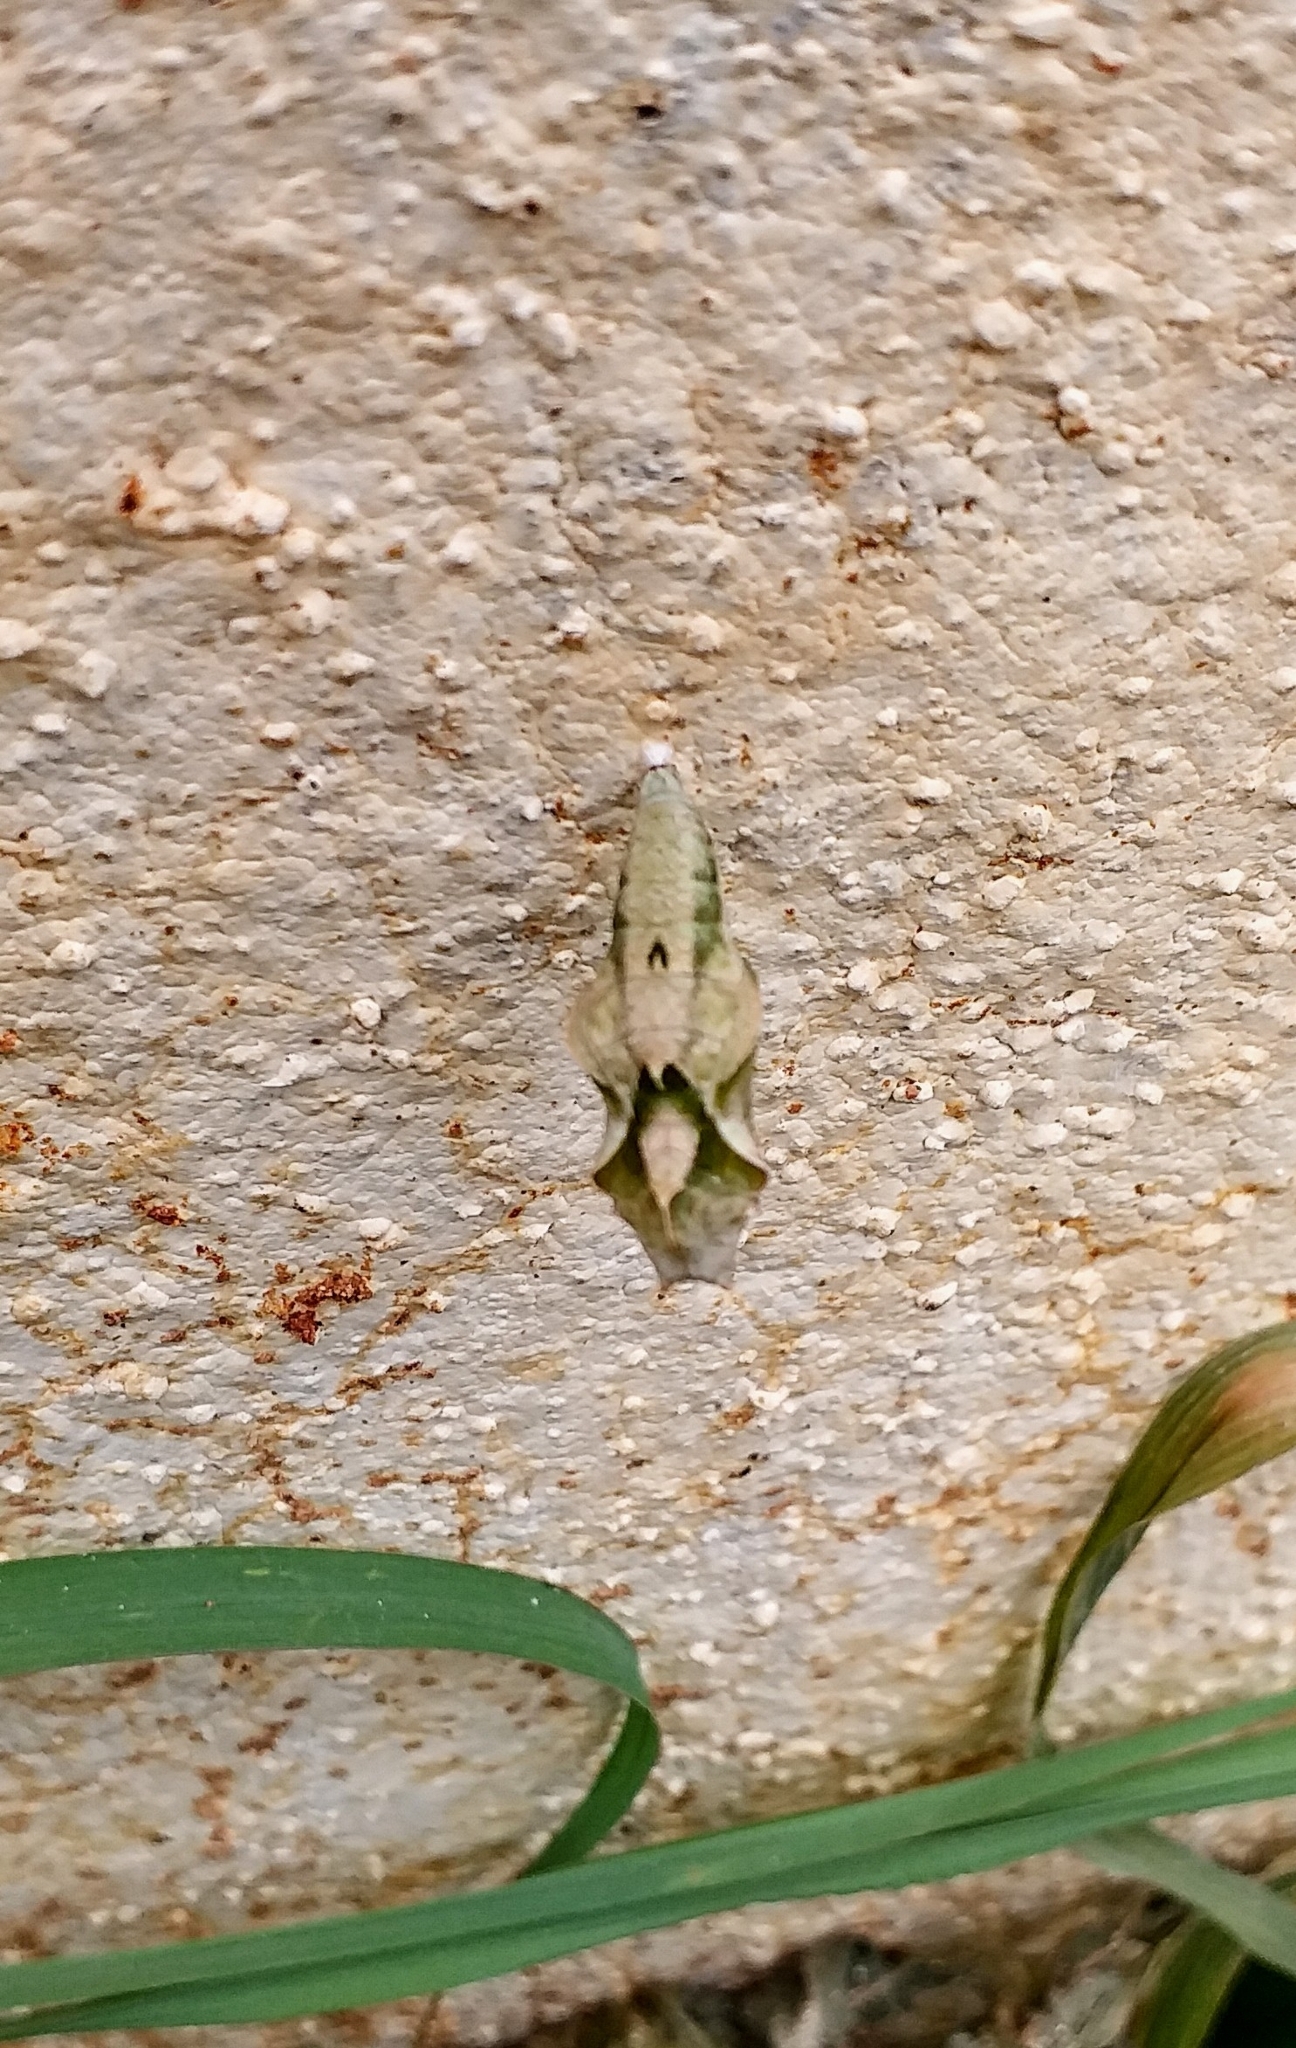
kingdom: Animalia
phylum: Arthropoda
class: Insecta
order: Lepidoptera
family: Nymphalidae
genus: Ariadne
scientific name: Ariadne merione
